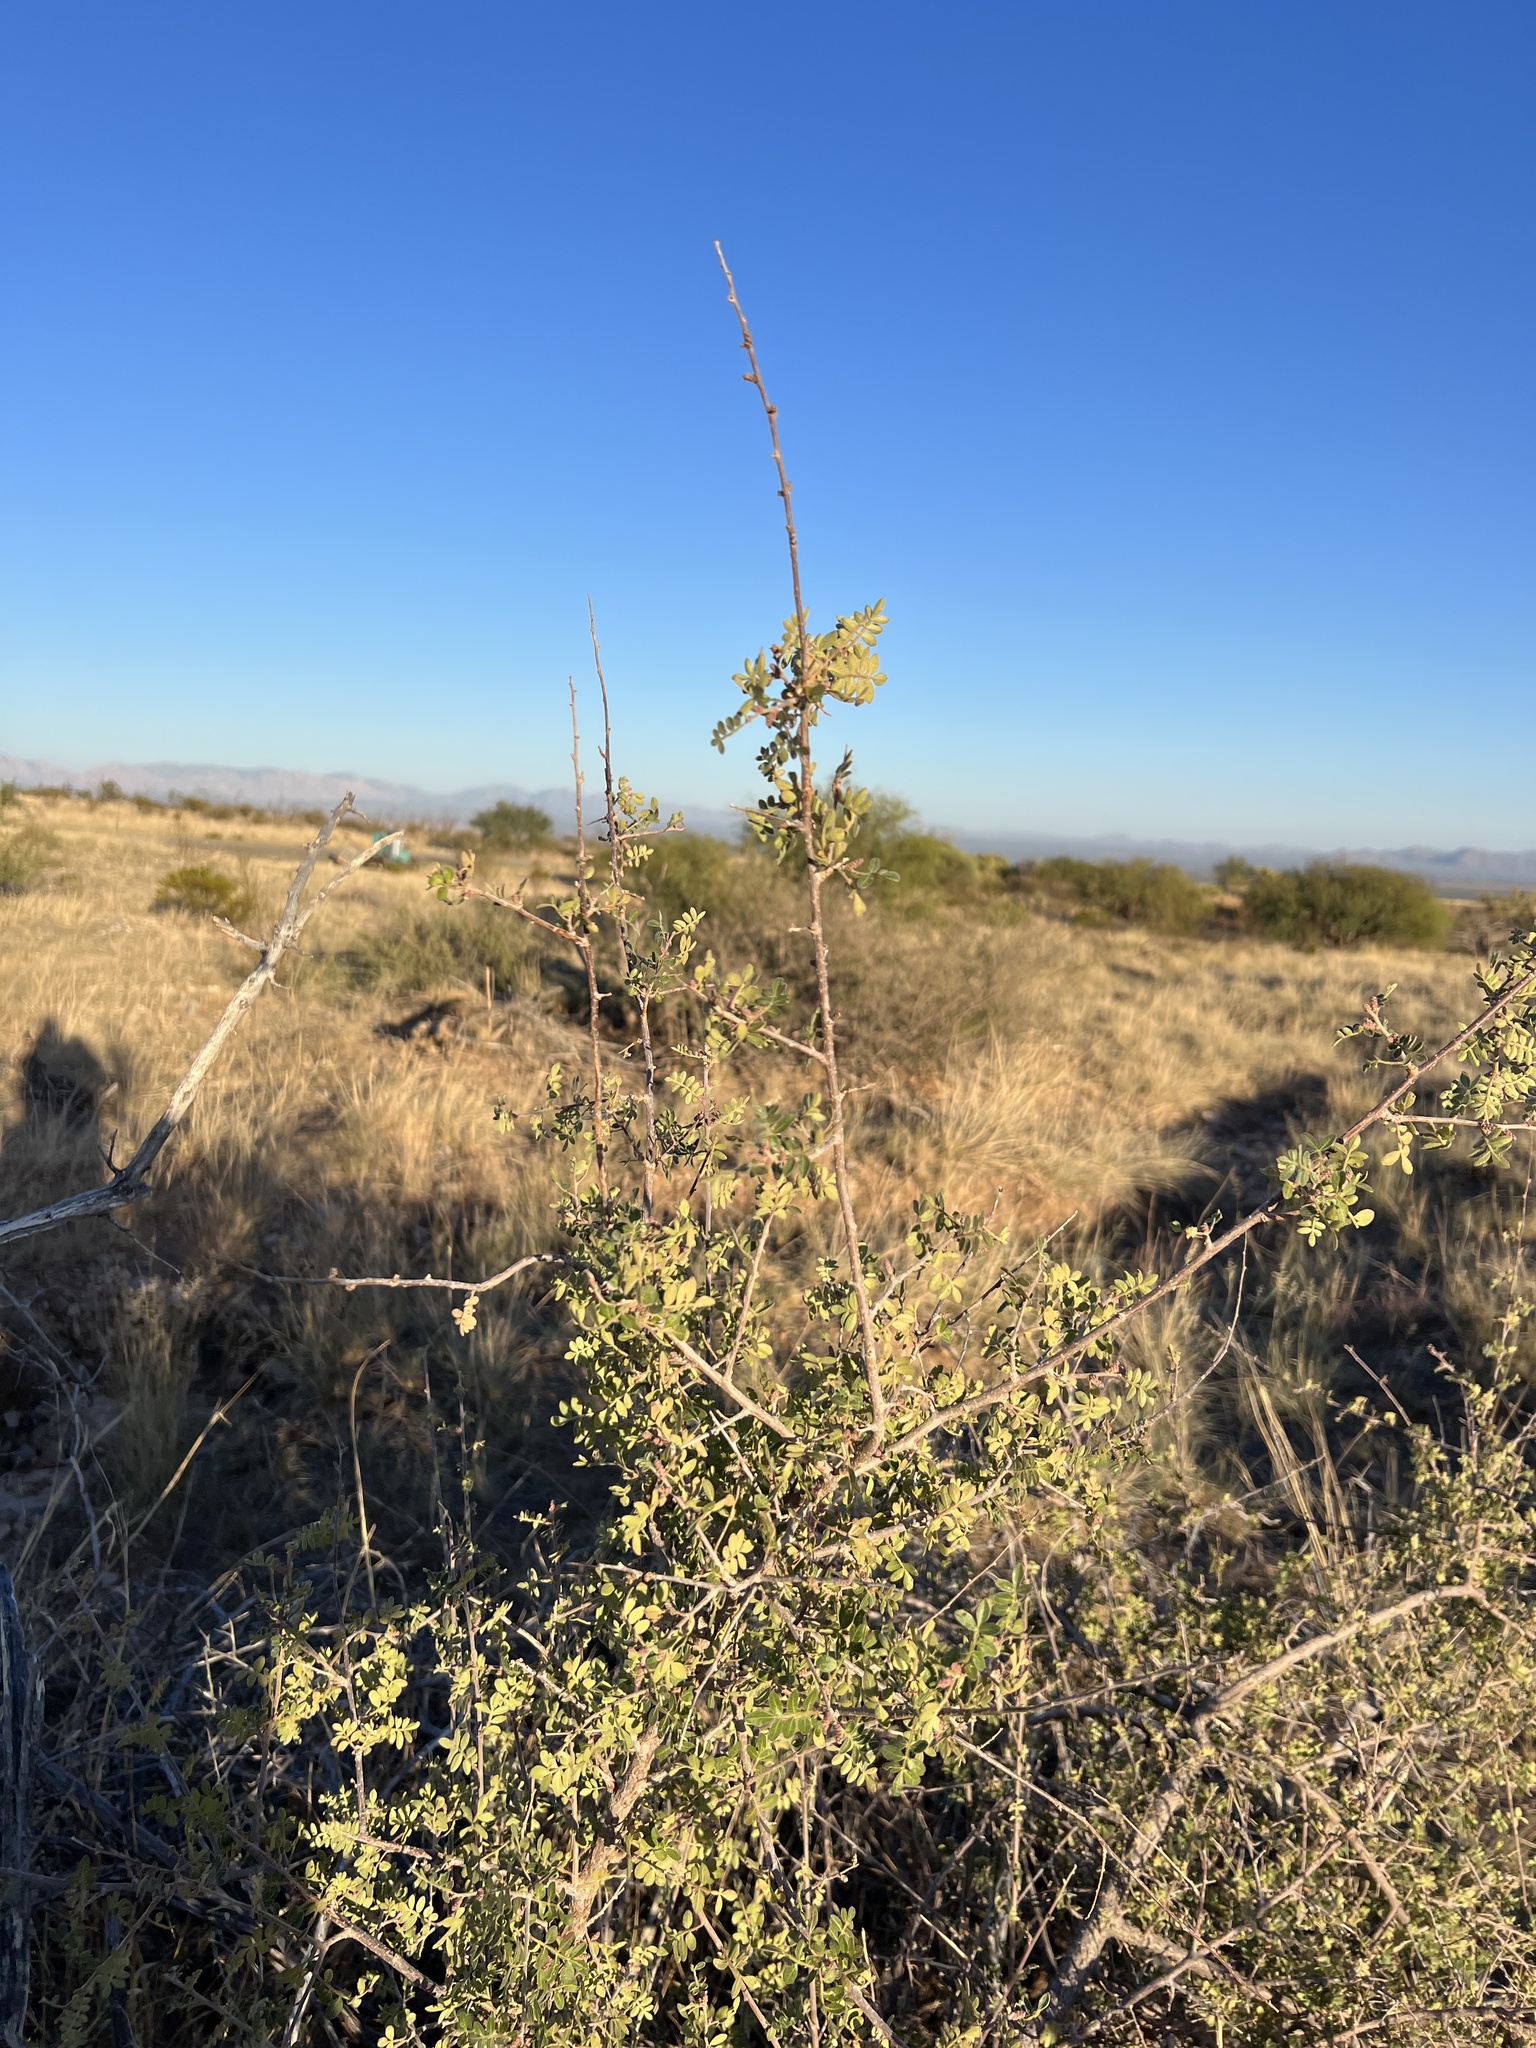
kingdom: Plantae
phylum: Tracheophyta
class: Magnoliopsida
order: Sapindales
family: Anacardiaceae
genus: Rhus
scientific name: Rhus microphylla
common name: Desert sumac
